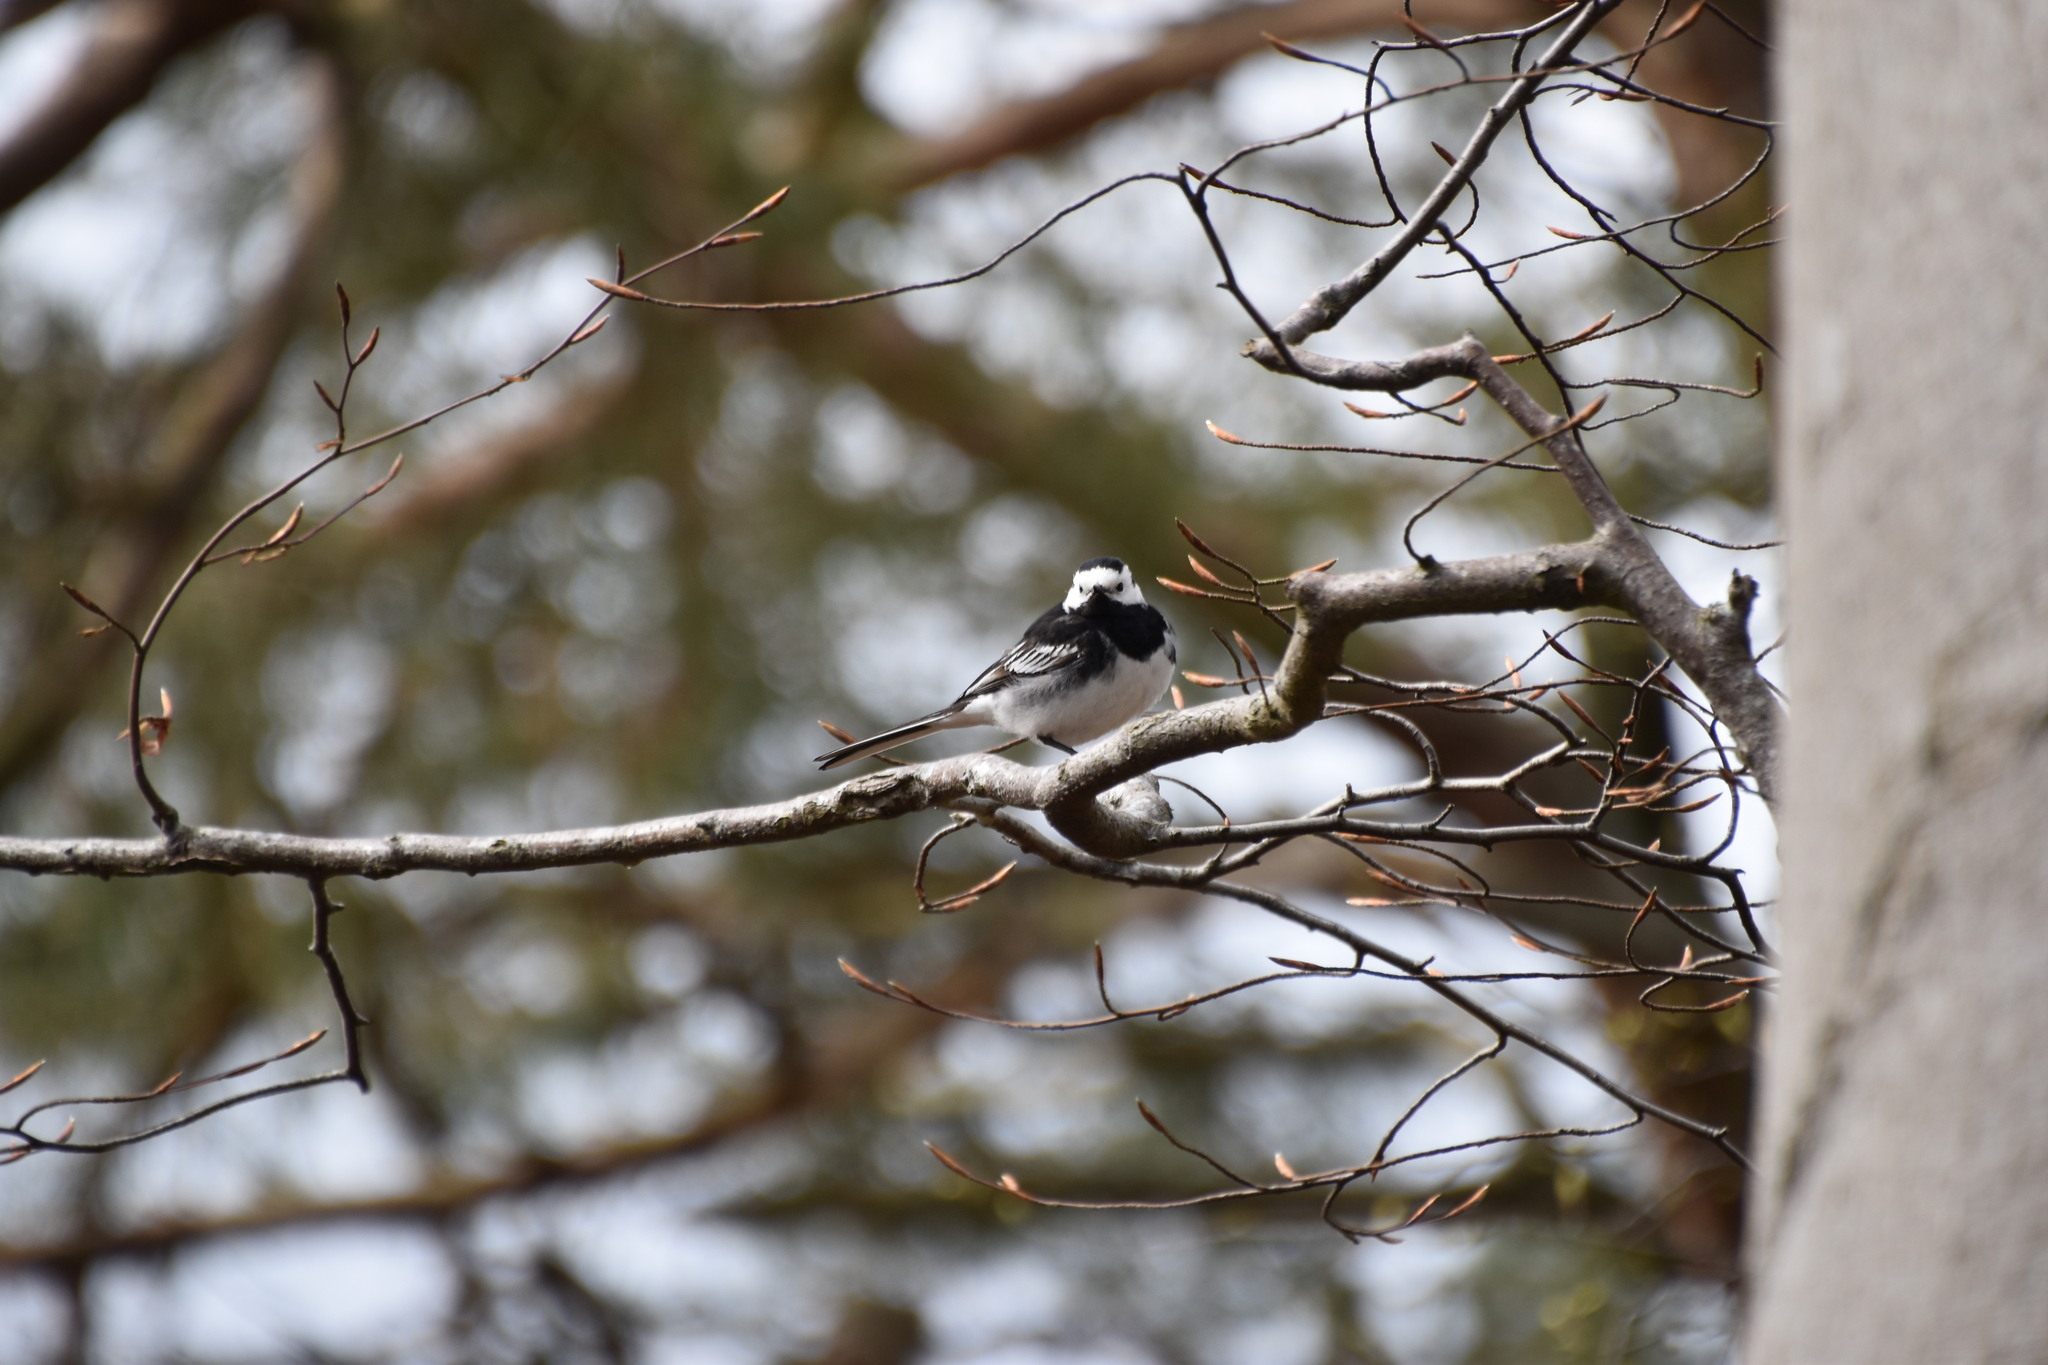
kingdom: Animalia
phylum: Chordata
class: Aves
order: Passeriformes
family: Motacillidae
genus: Motacilla
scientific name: Motacilla alba
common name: White wagtail
